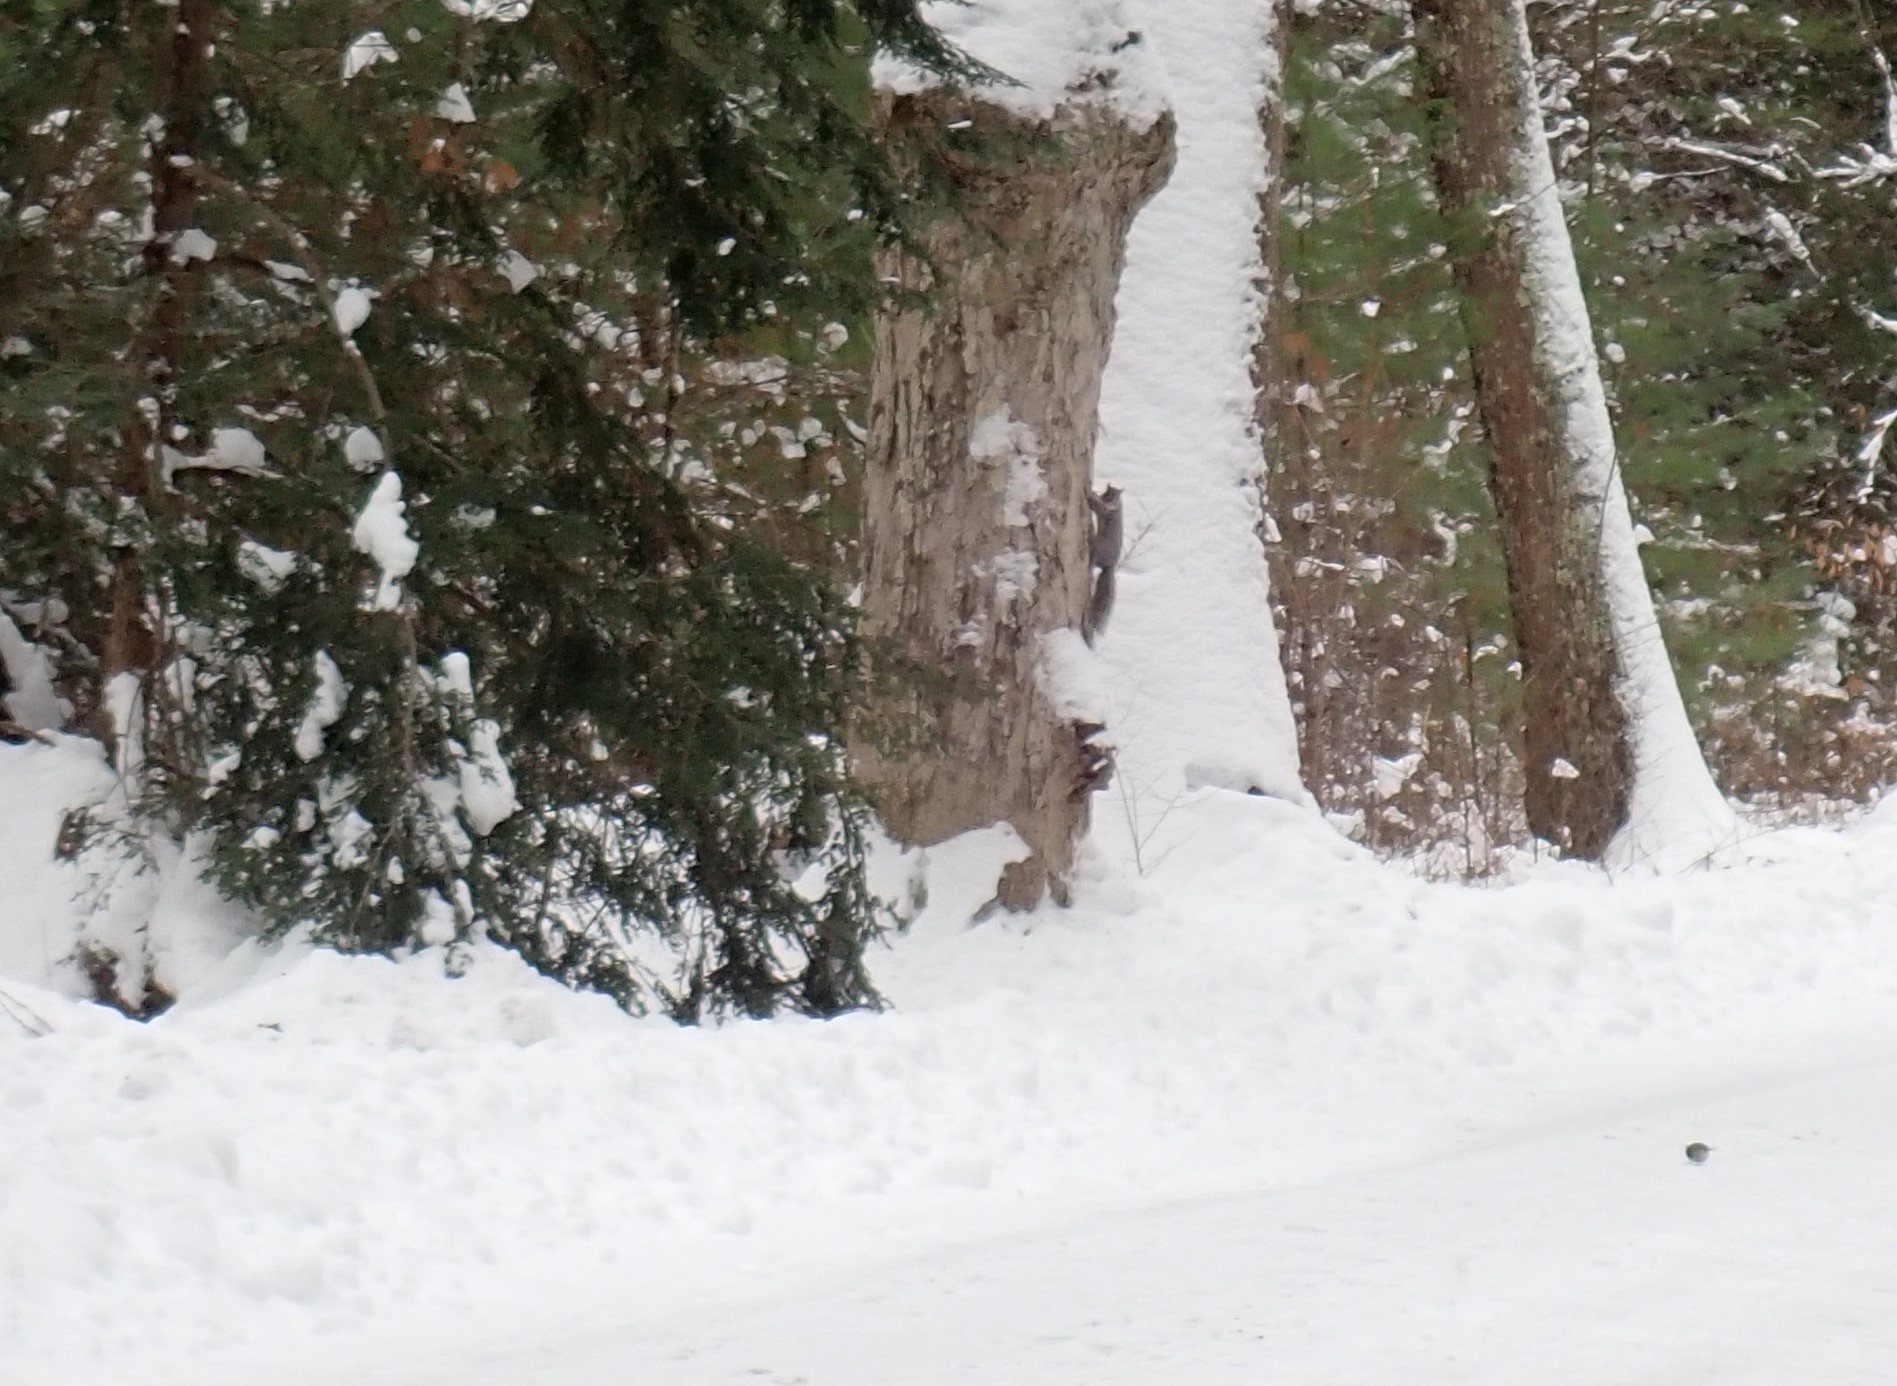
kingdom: Animalia
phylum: Chordata
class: Mammalia
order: Rodentia
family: Sciuridae
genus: Sciurus
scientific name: Sciurus carolinensis
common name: Eastern gray squirrel
